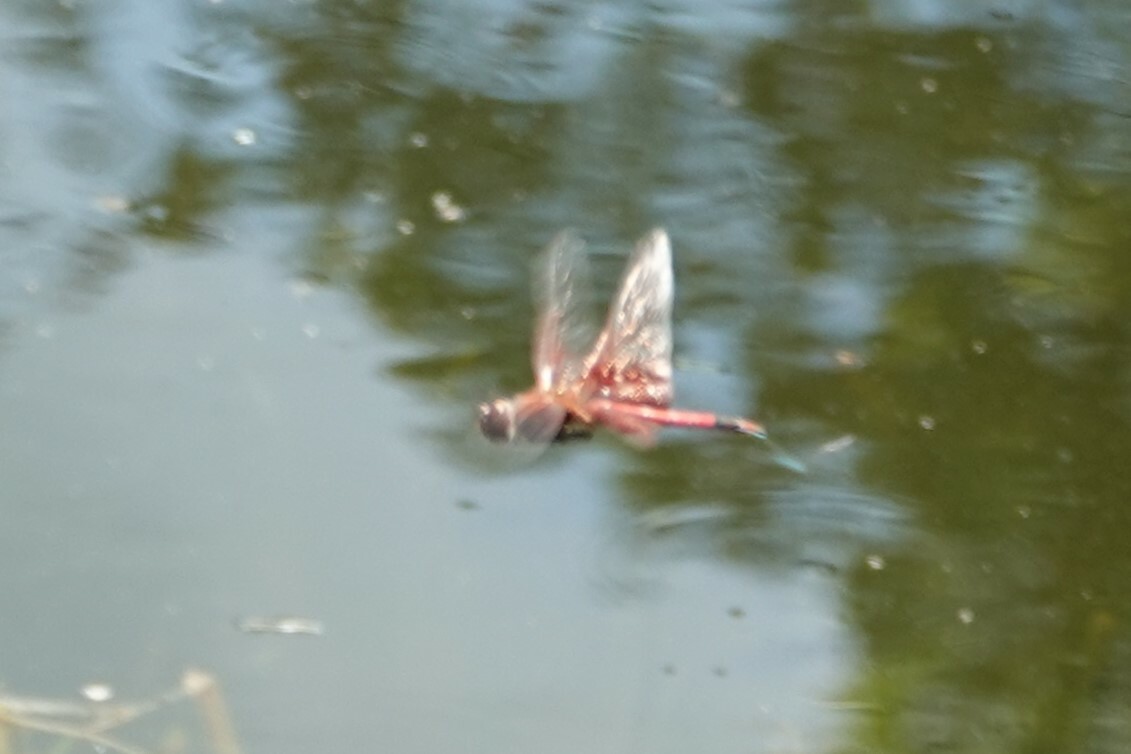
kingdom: Animalia
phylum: Arthropoda
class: Insecta
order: Odonata
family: Libellulidae
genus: Tramea
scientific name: Tramea carolina
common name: Carolina saddlebags
